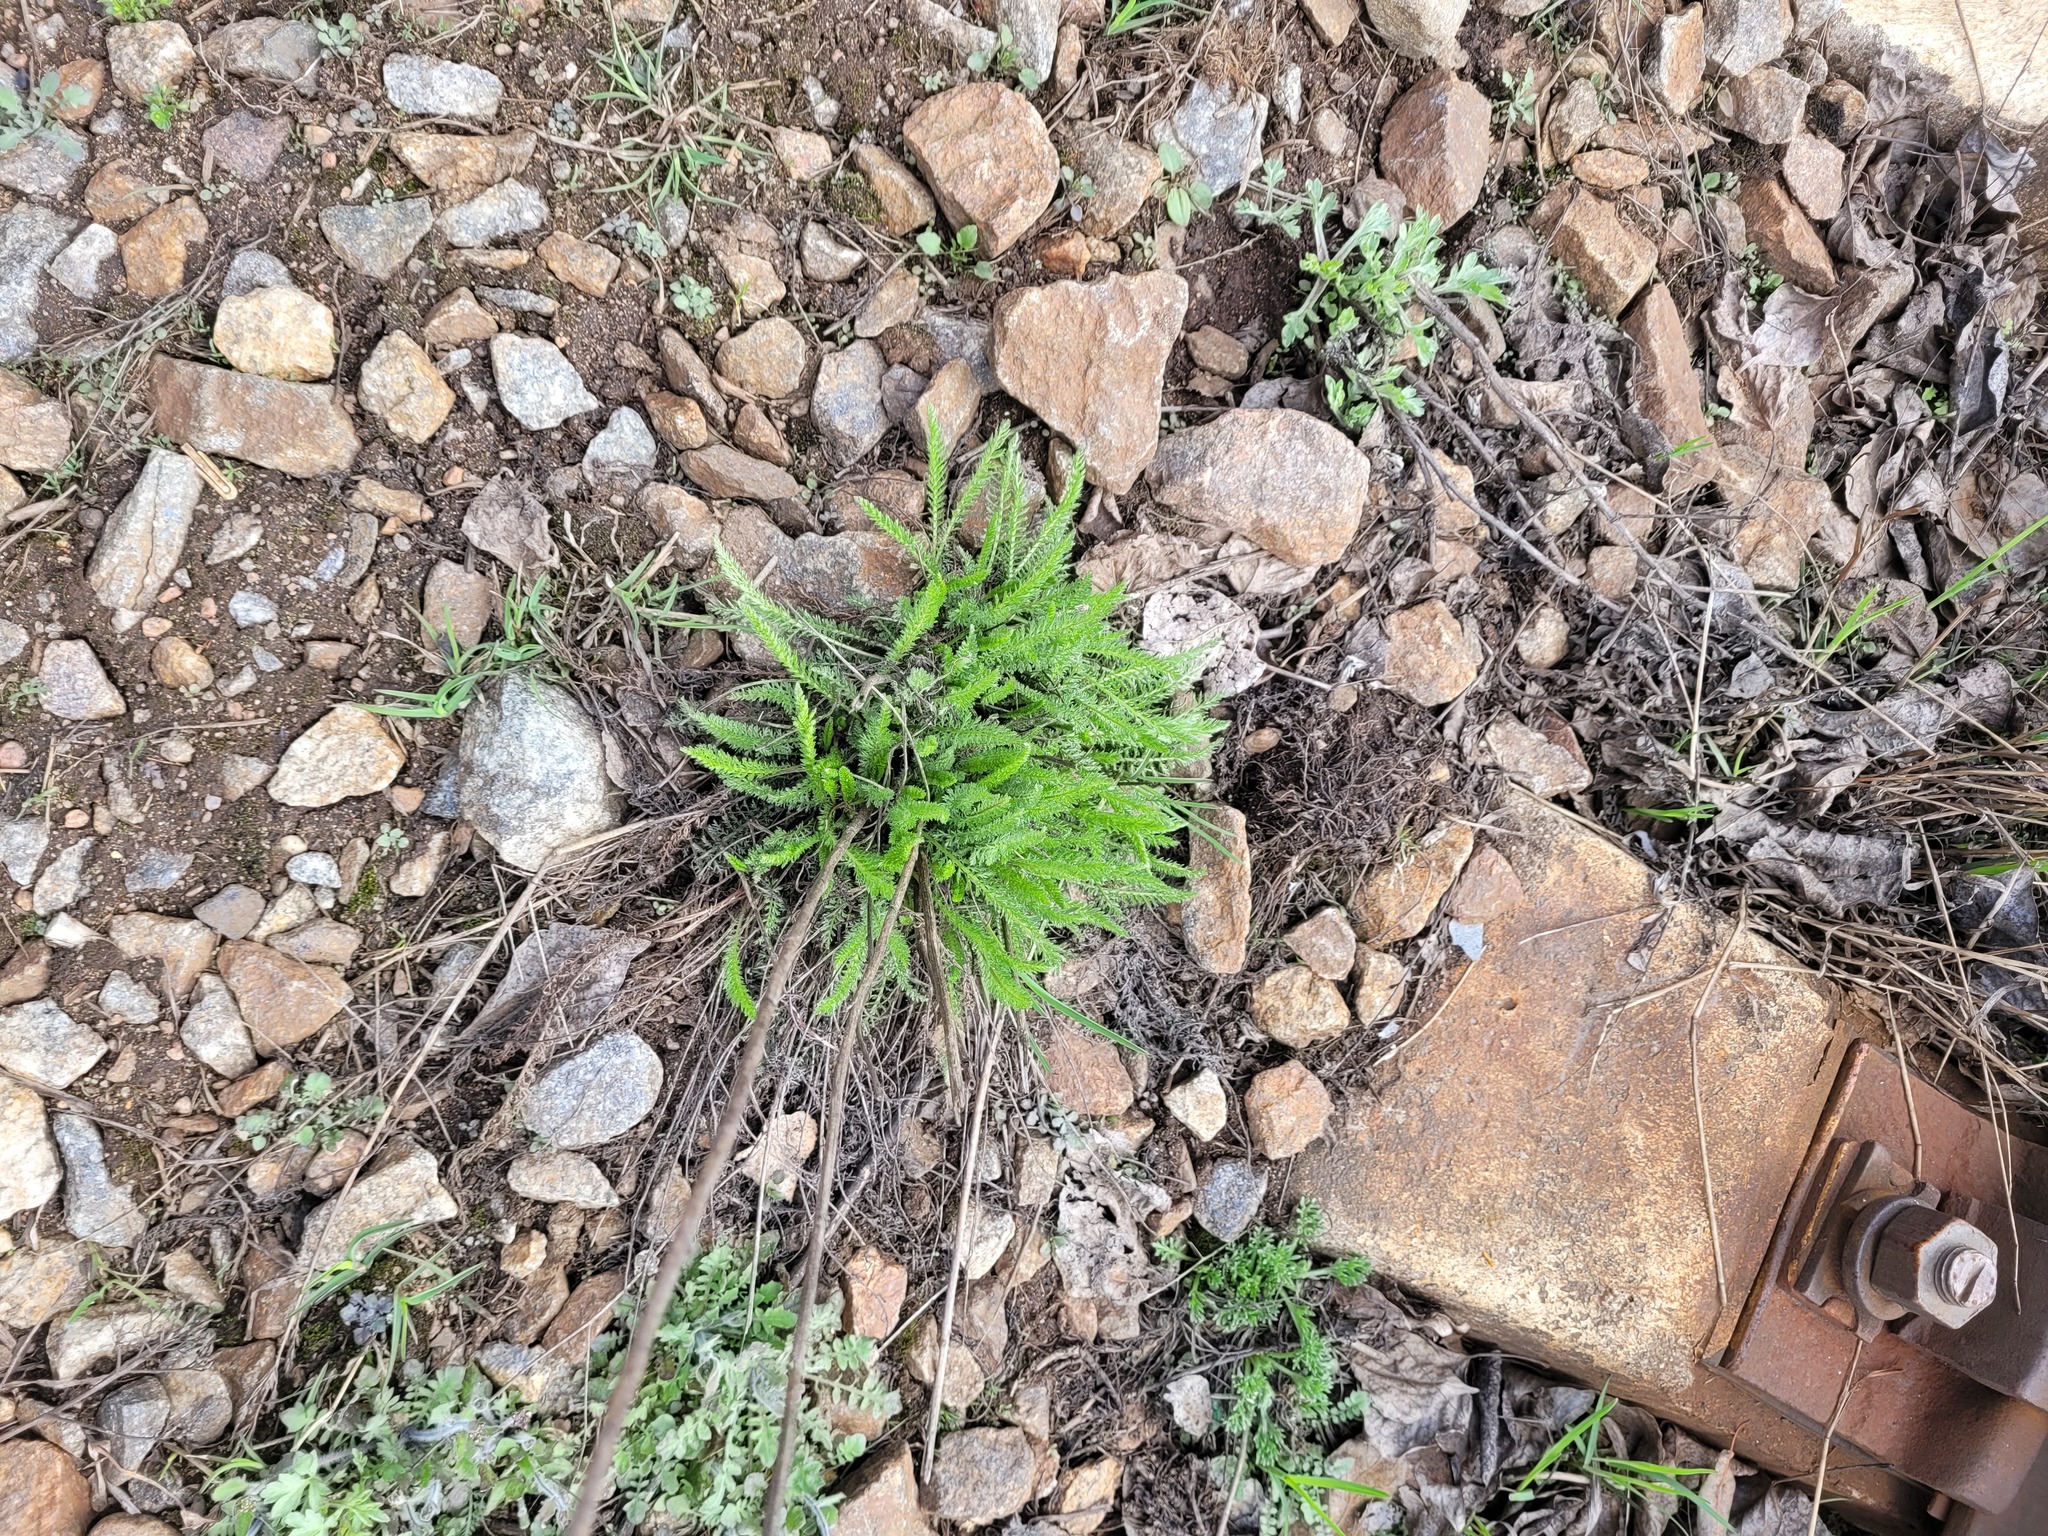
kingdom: Plantae
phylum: Tracheophyta
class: Magnoliopsida
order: Asterales
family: Asteraceae
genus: Achillea
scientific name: Achillea millefolium
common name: Yarrow
